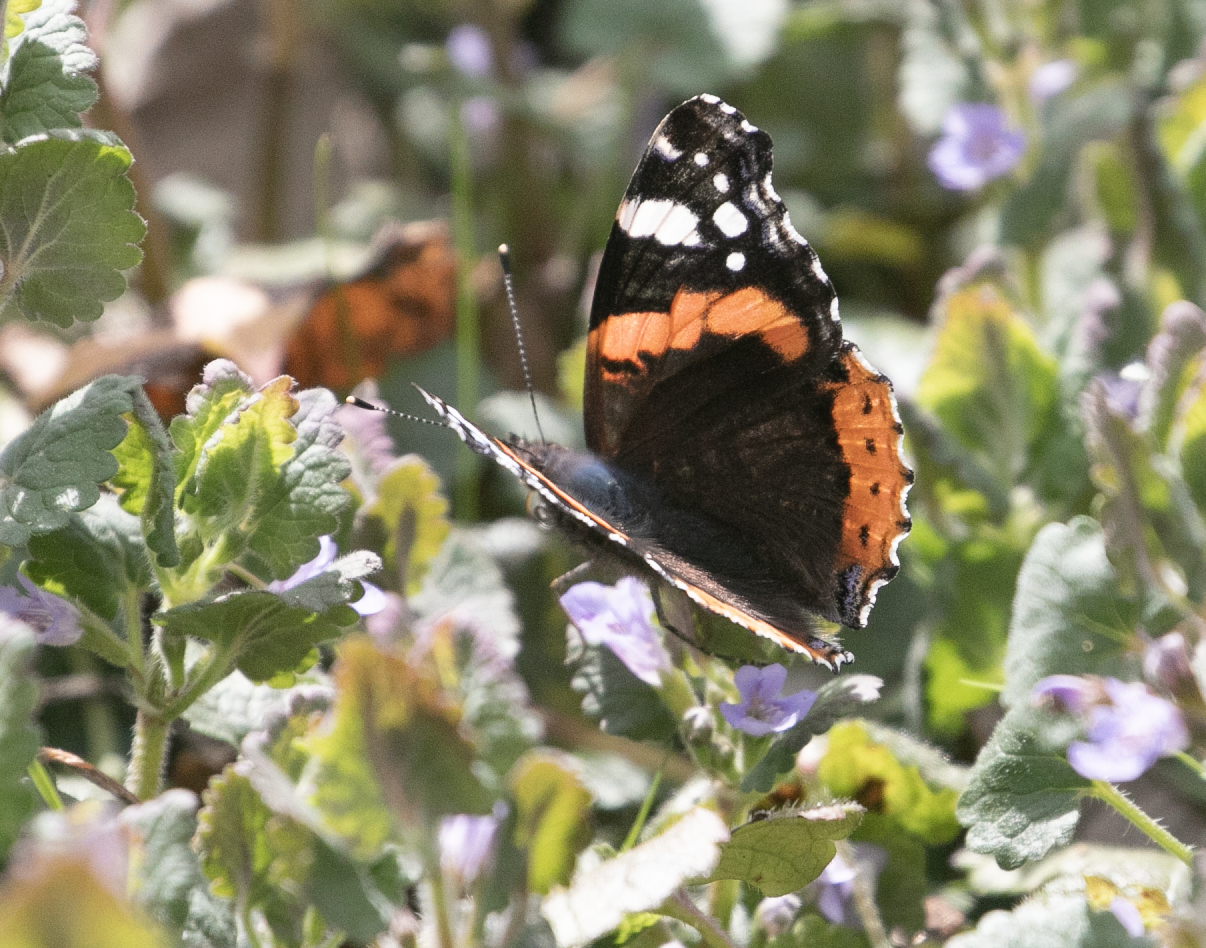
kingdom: Animalia
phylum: Arthropoda
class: Insecta
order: Lepidoptera
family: Nymphalidae
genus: Vanessa
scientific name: Vanessa atalanta
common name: Red admiral
